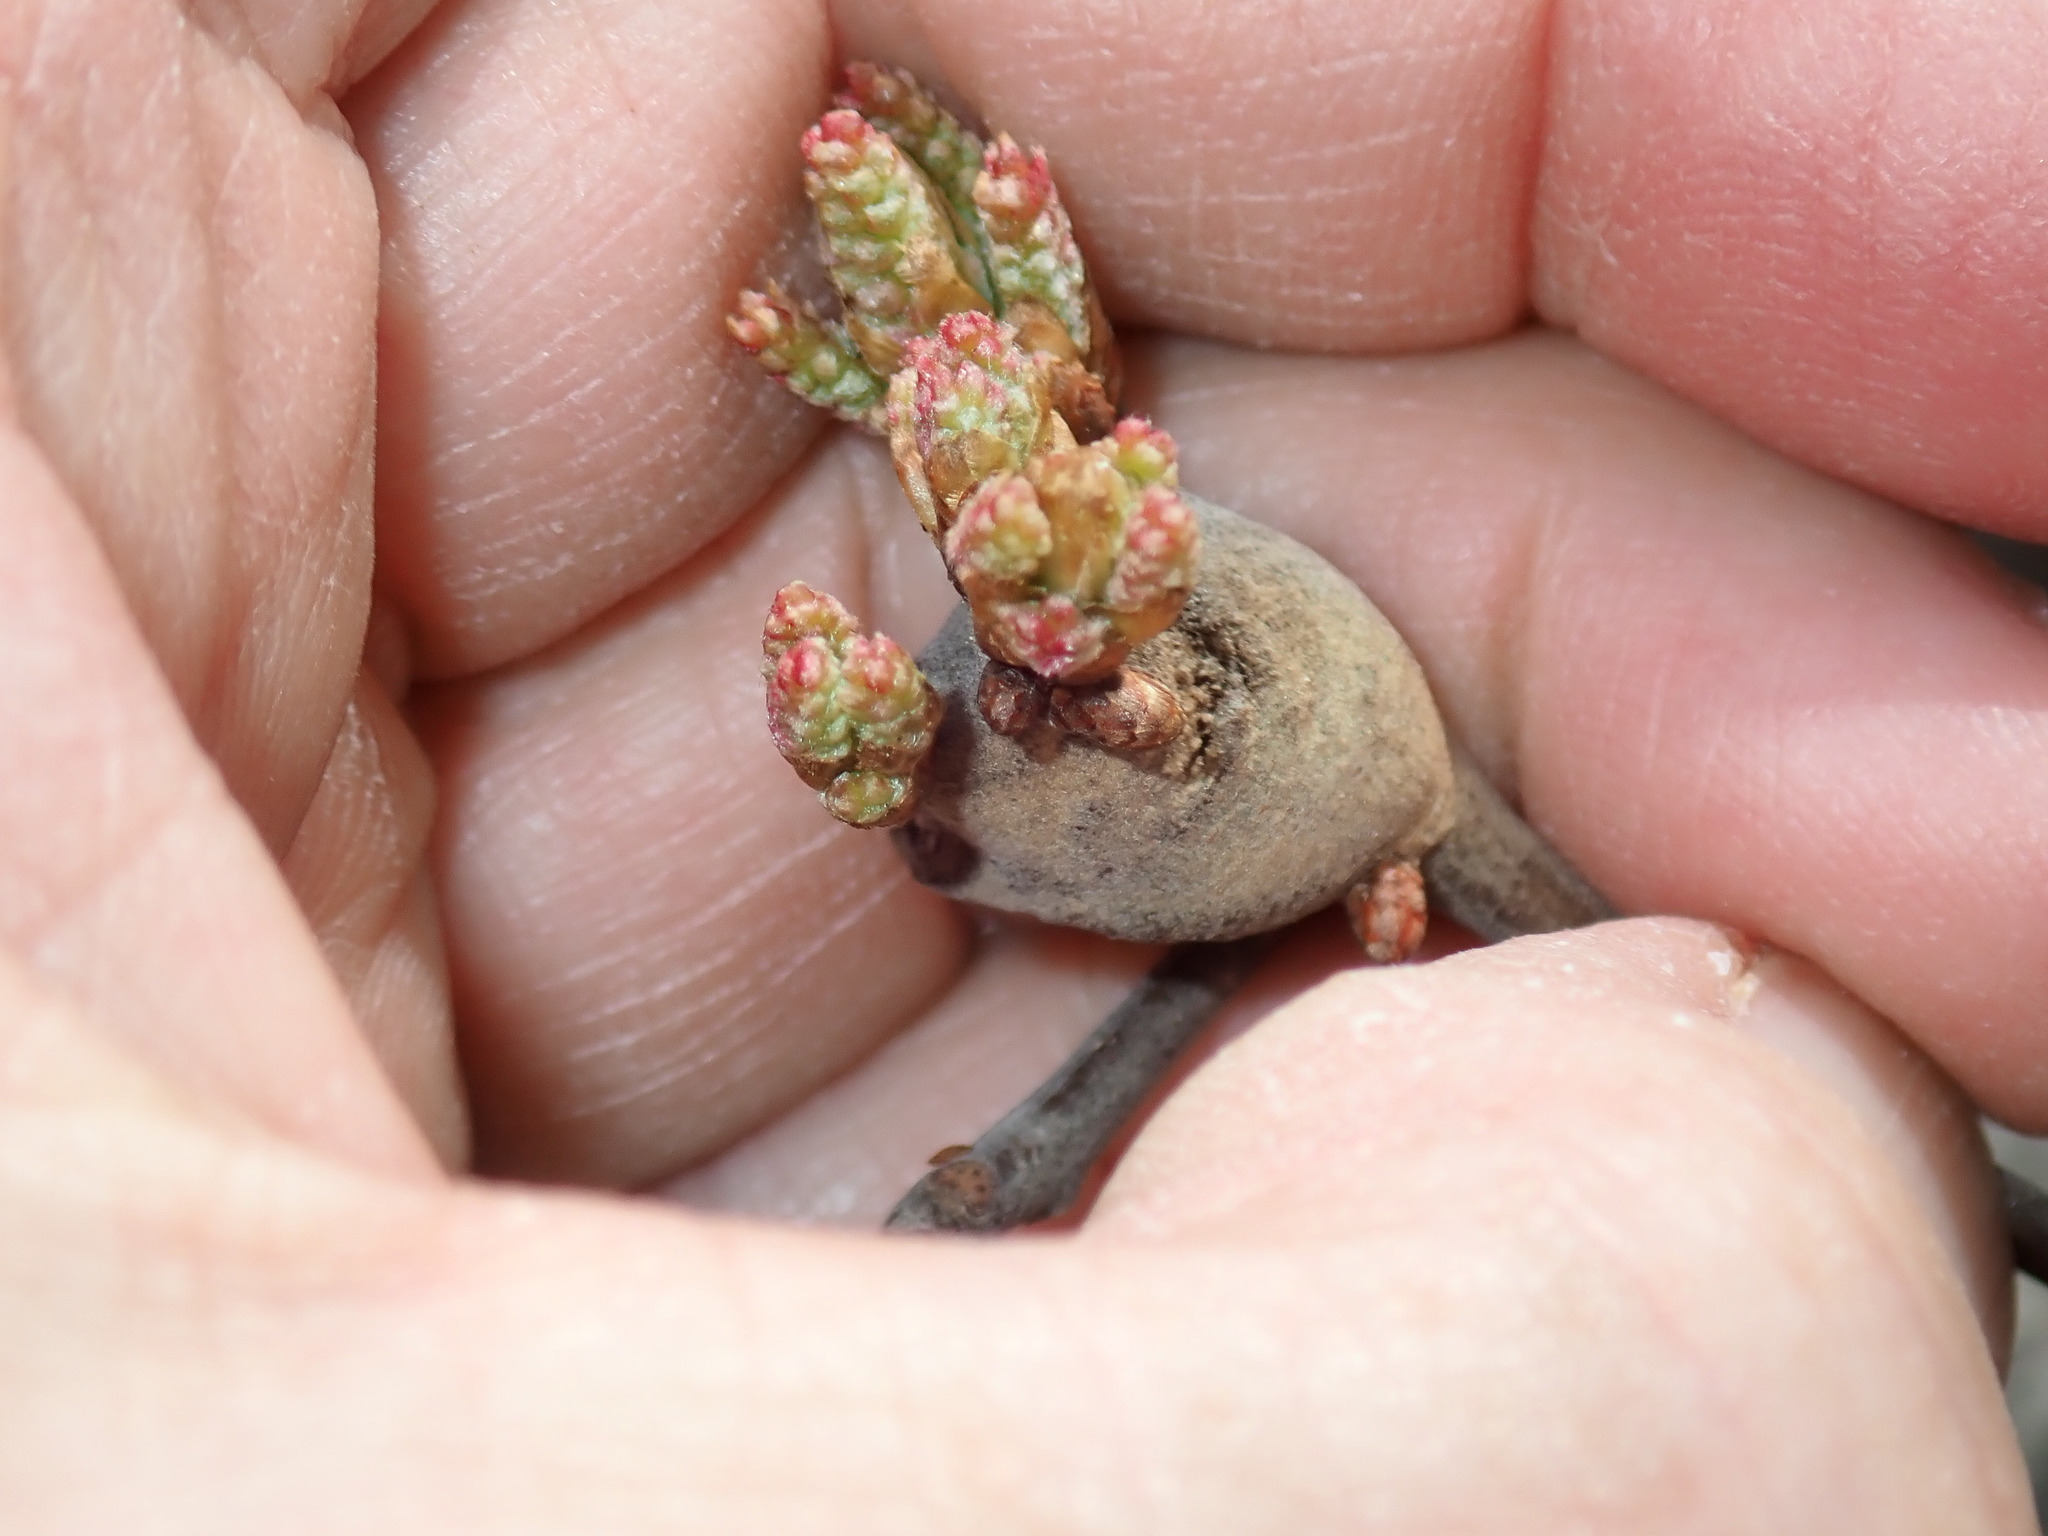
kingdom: Animalia
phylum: Arthropoda
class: Insecta
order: Hymenoptera
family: Cynipidae
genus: Zapatella
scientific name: Zapatella quercusphellos
